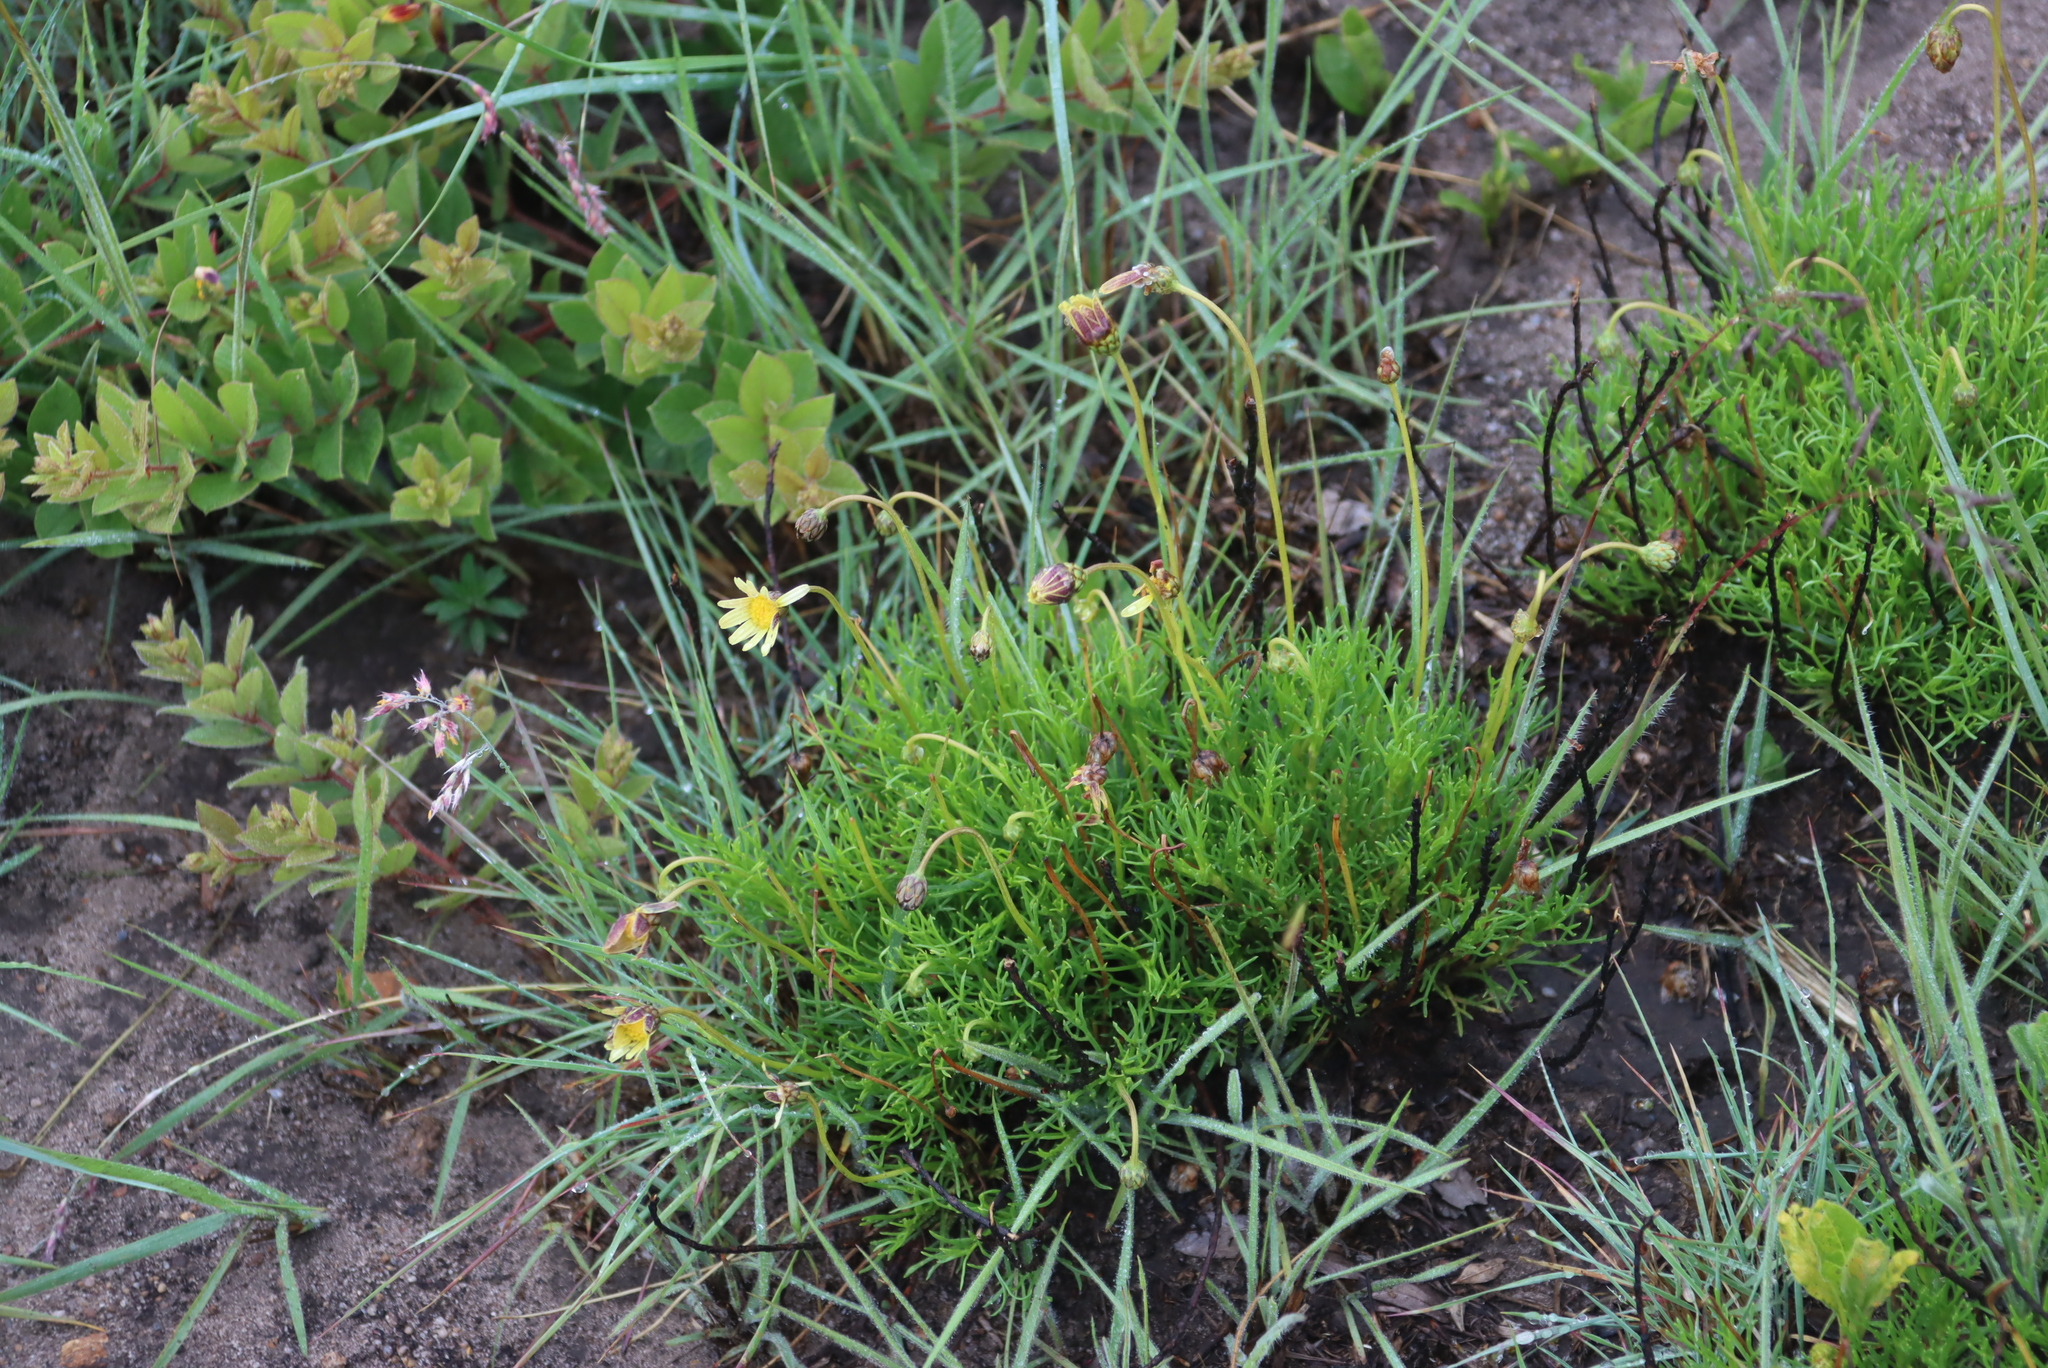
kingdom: Plantae
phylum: Tracheophyta
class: Magnoliopsida
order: Asterales
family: Asteraceae
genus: Ursinia
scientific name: Ursinia nana
